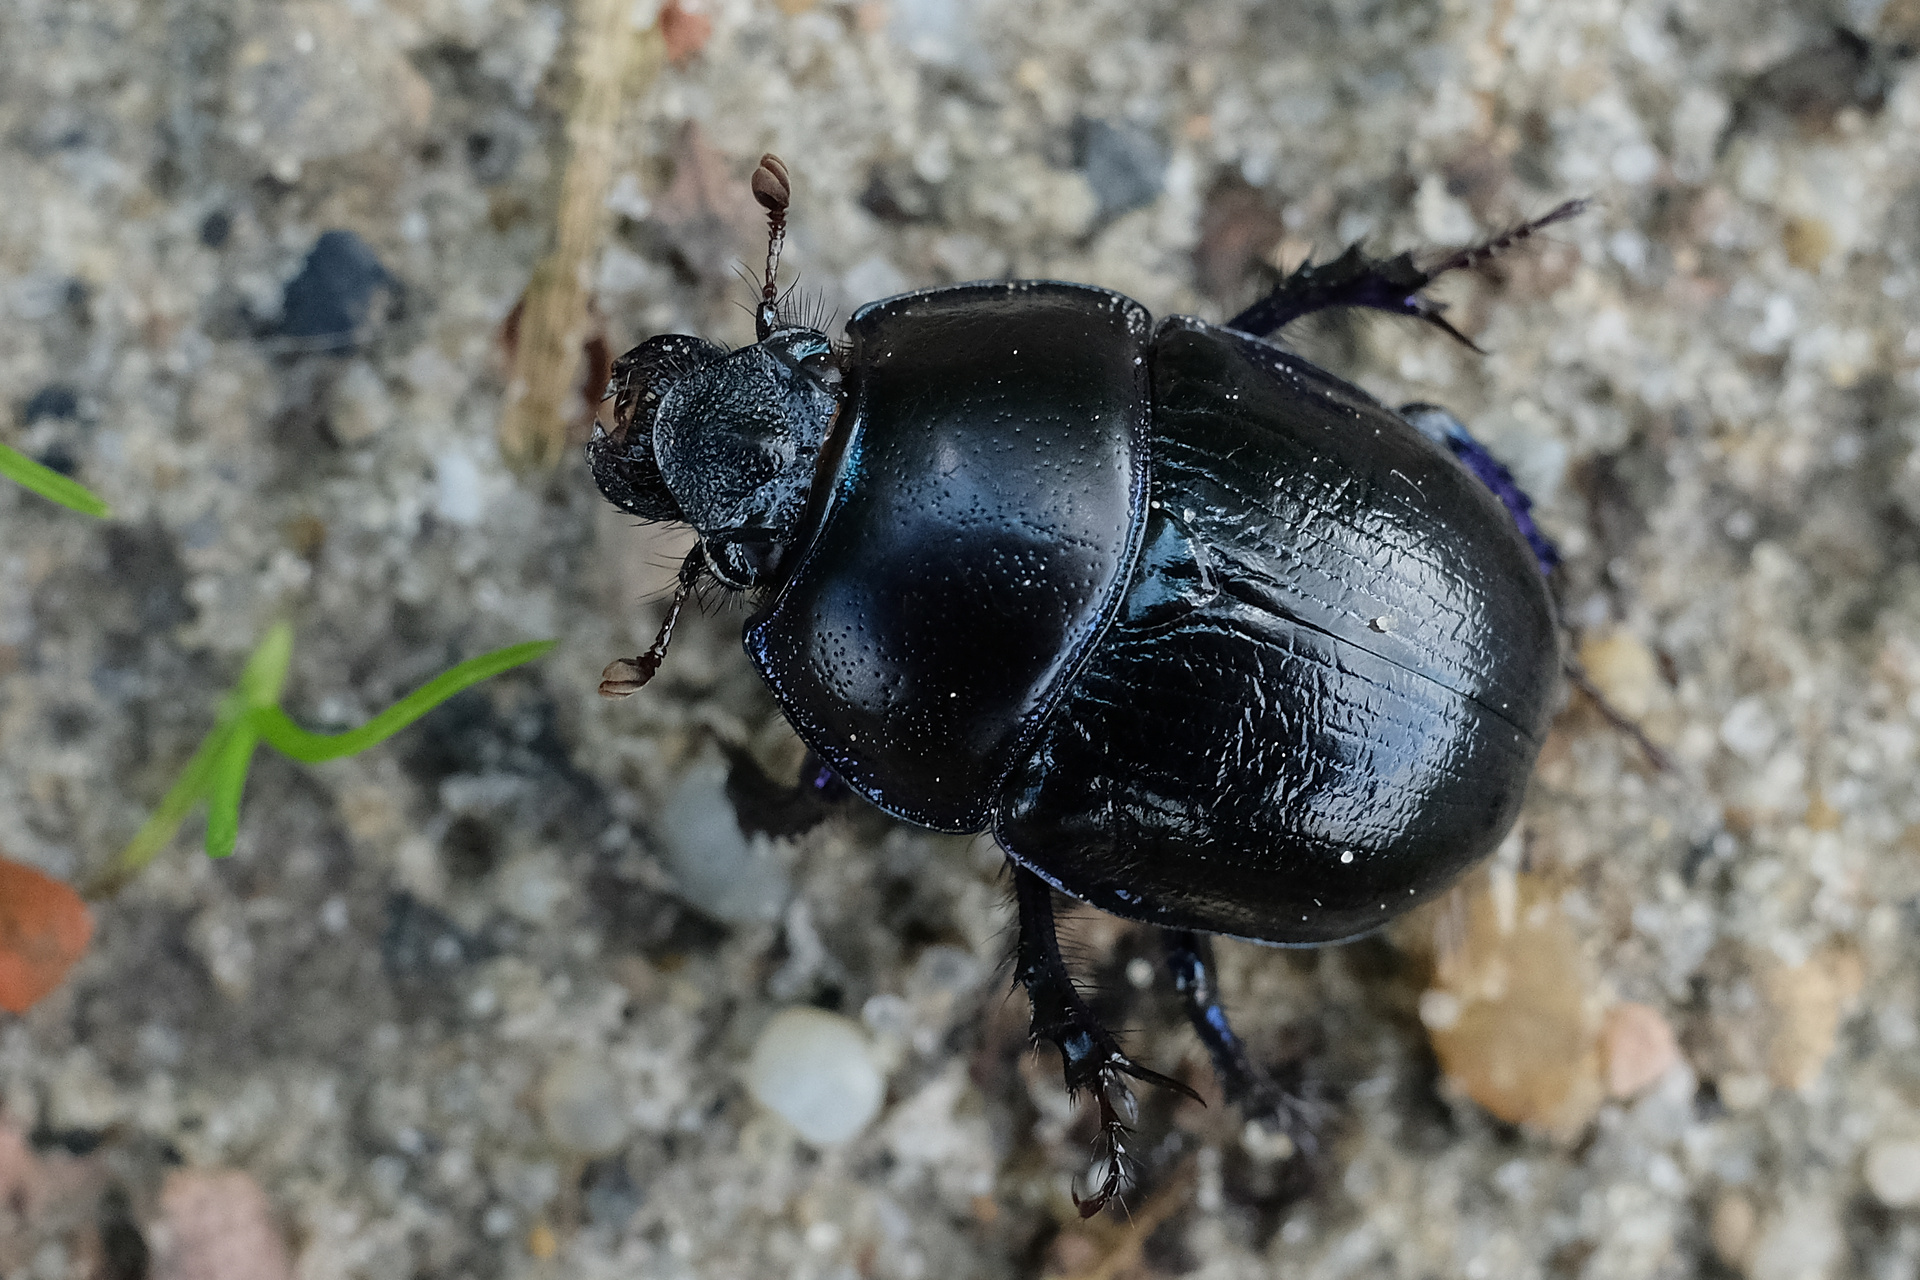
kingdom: Animalia
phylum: Arthropoda
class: Insecta
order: Coleoptera
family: Geotrupidae
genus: Anoplotrupes
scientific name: Anoplotrupes stercorosus
